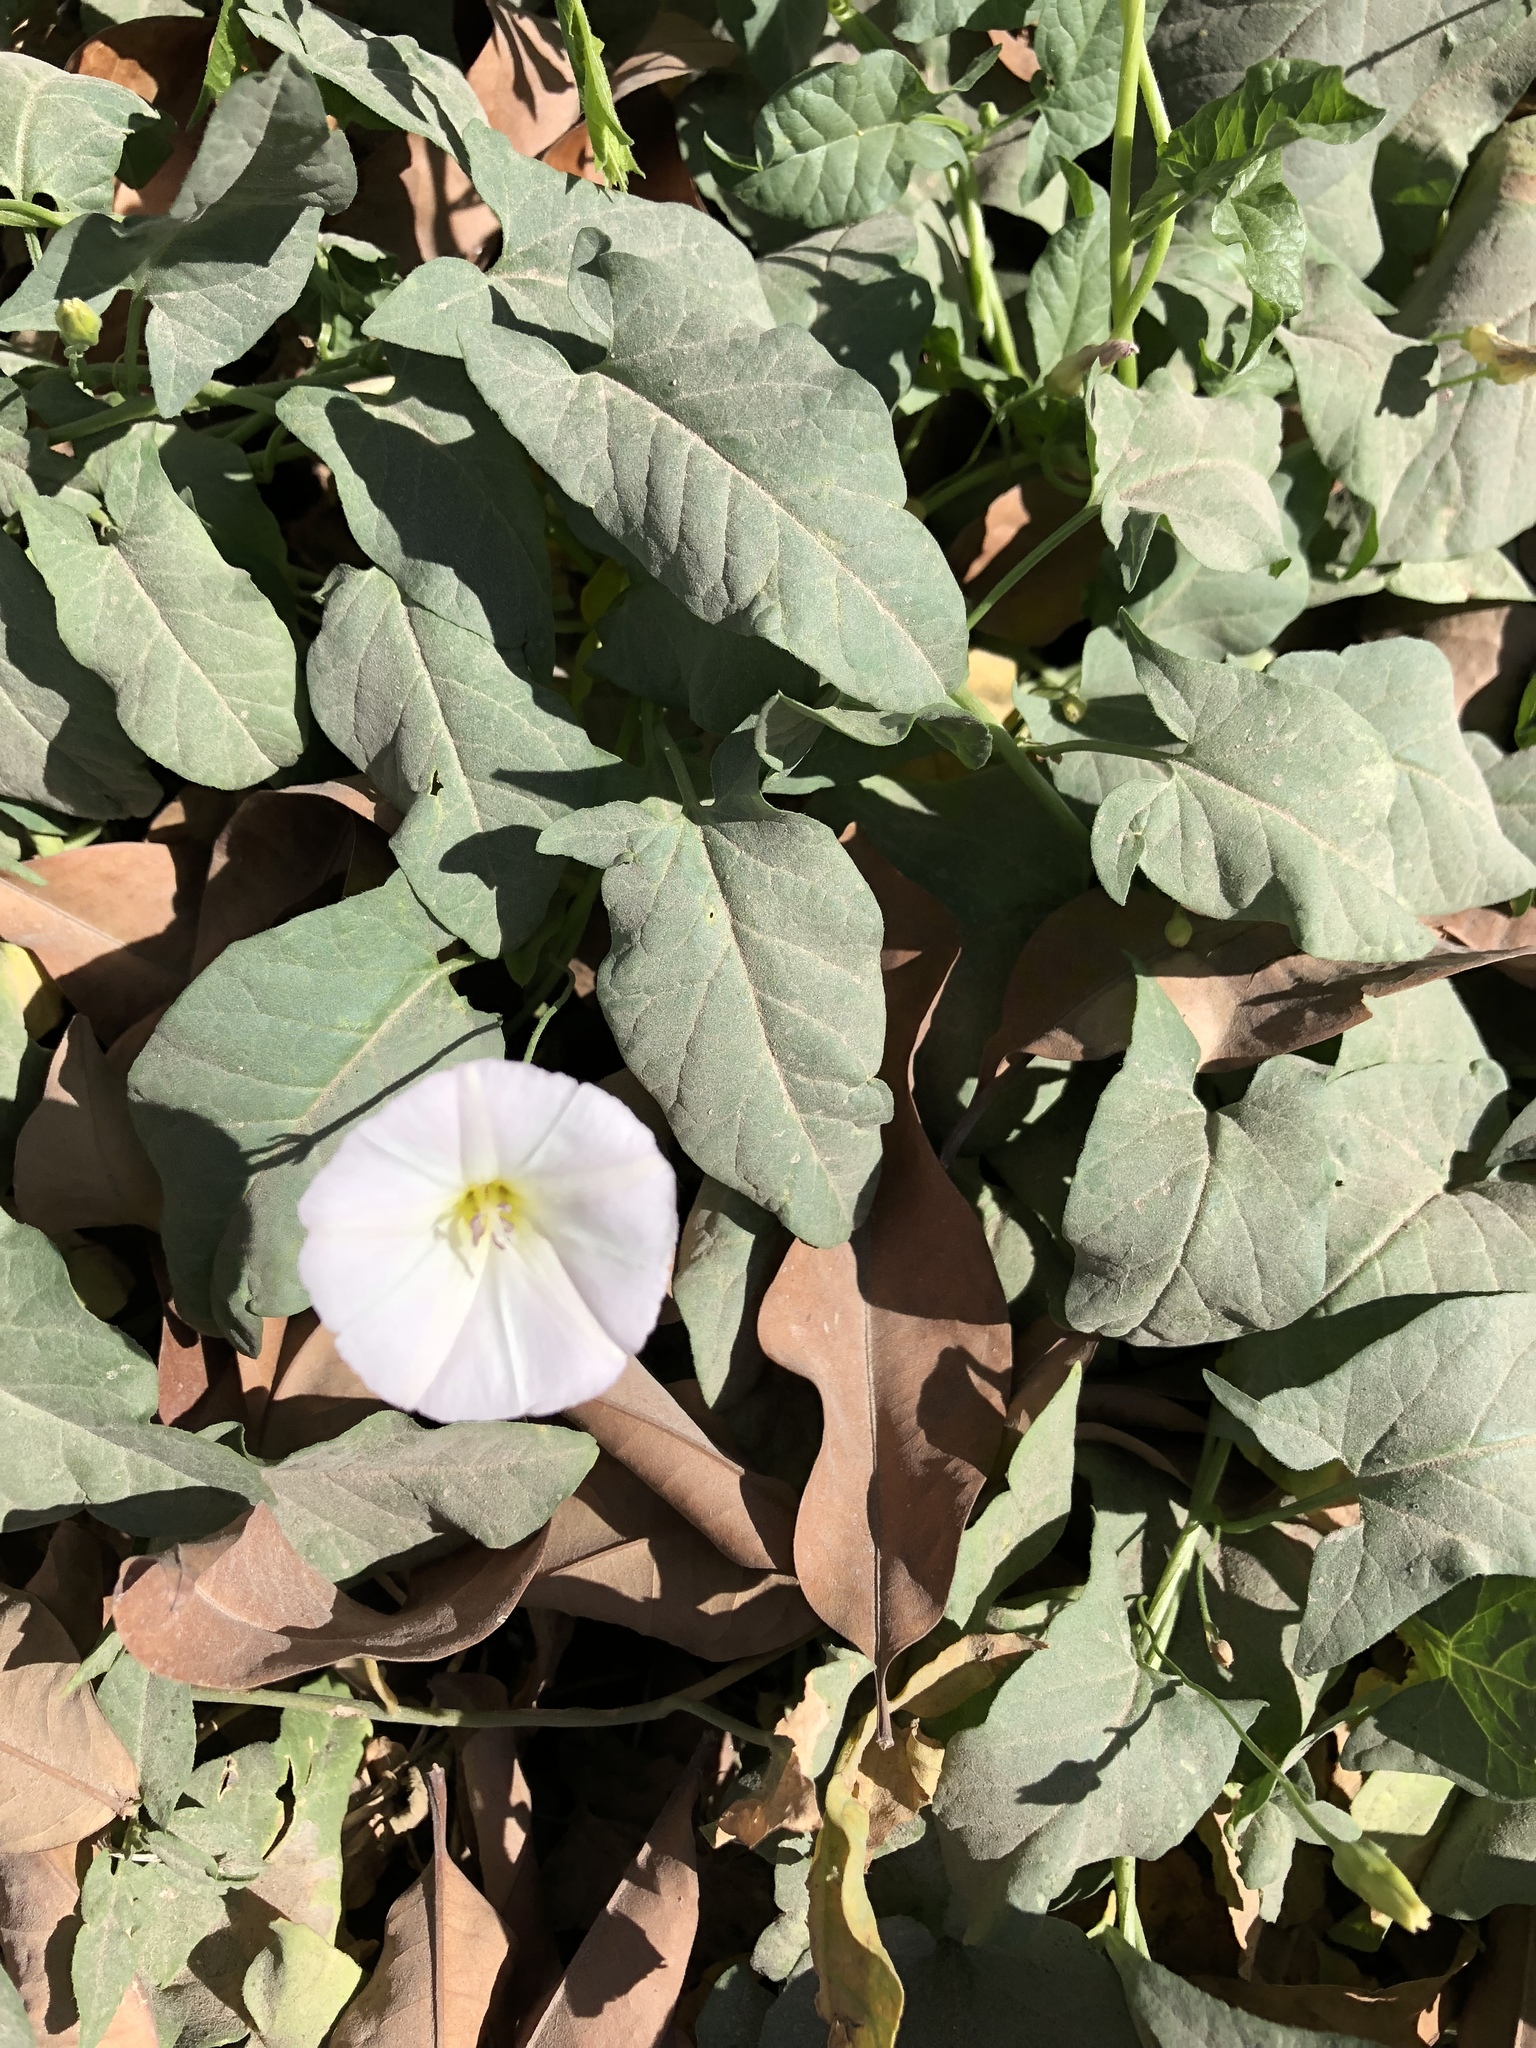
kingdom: Plantae
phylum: Tracheophyta
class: Magnoliopsida
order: Solanales
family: Convolvulaceae
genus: Convolvulus
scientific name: Convolvulus arvensis
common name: Field bindweed
